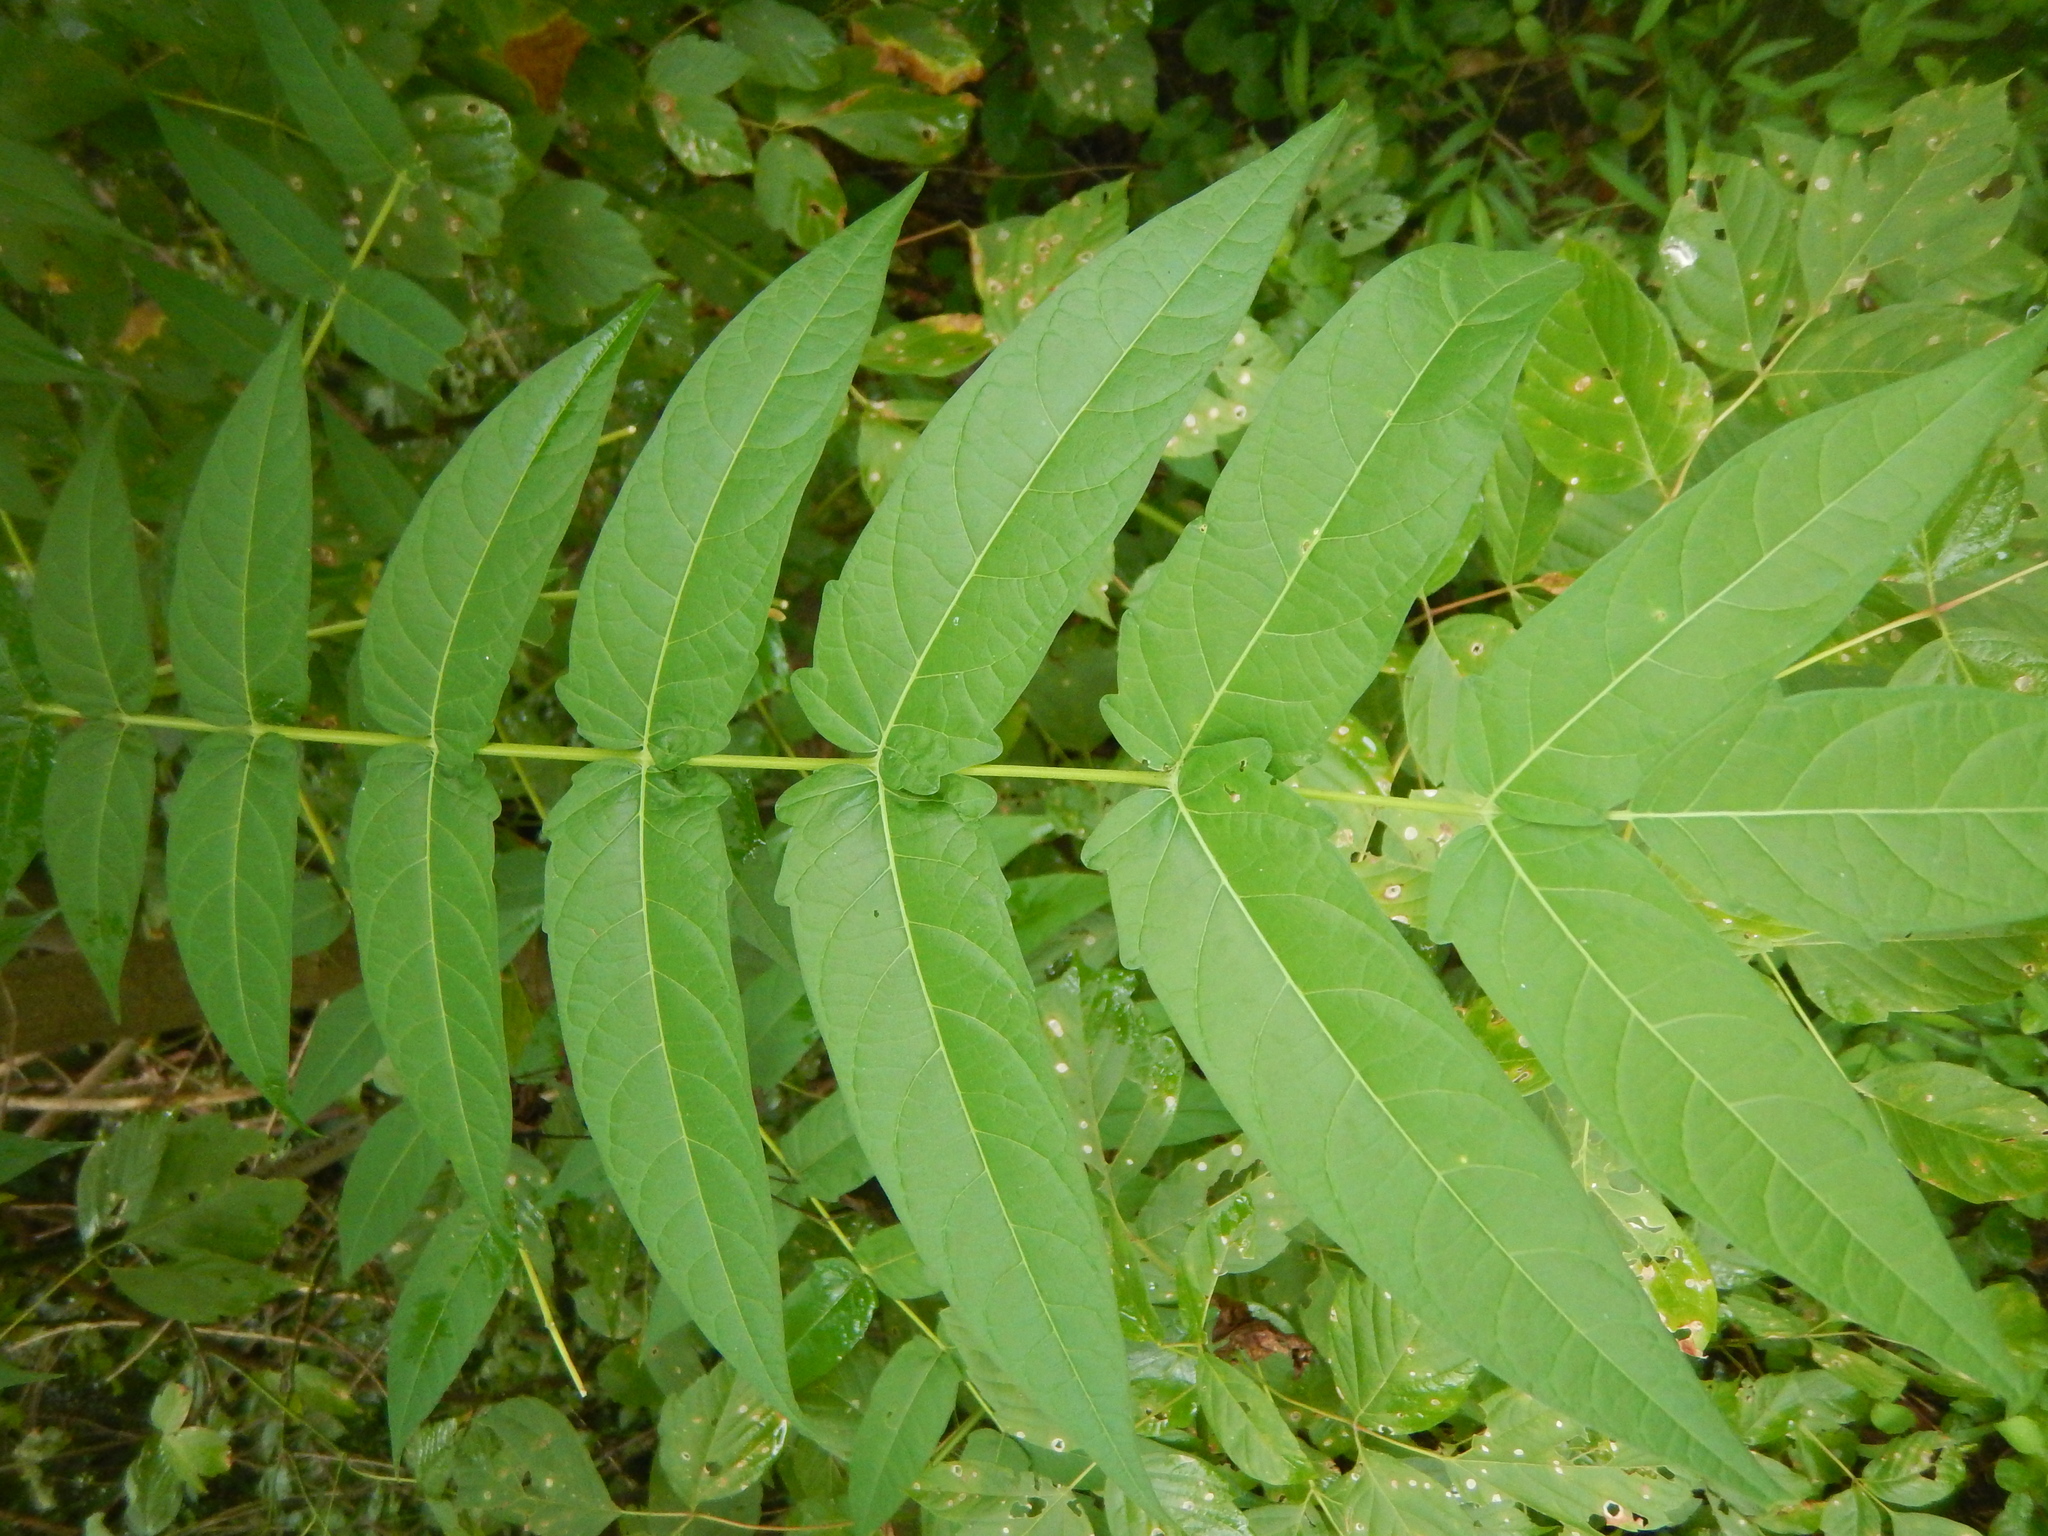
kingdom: Plantae
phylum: Tracheophyta
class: Magnoliopsida
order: Sapindales
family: Simaroubaceae
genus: Ailanthus
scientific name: Ailanthus altissima
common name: Tree-of-heaven
